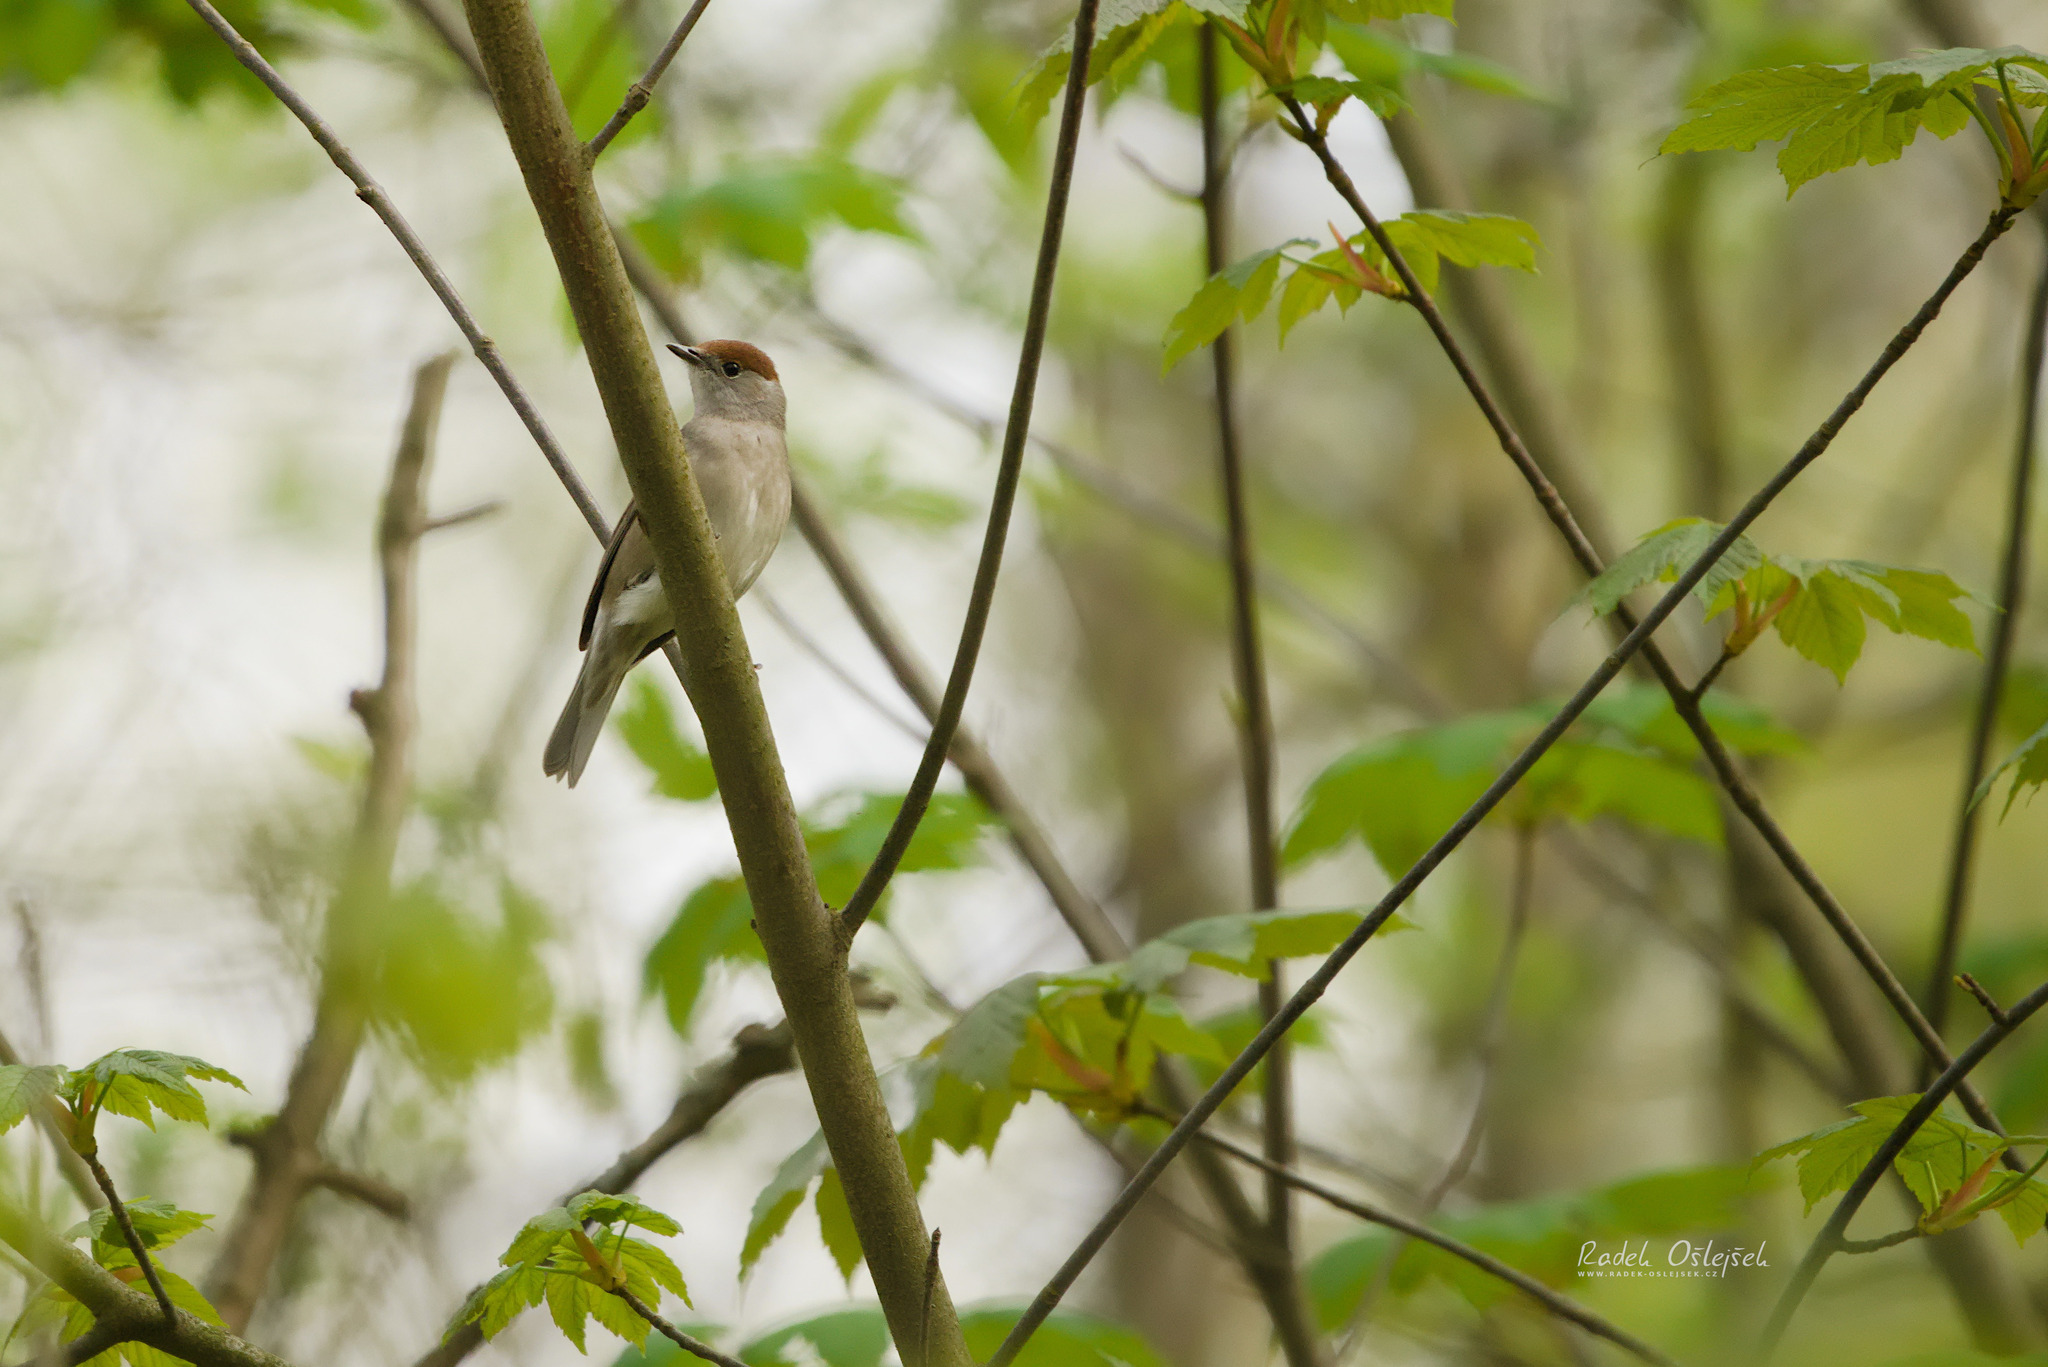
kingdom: Animalia
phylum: Chordata
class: Aves
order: Passeriformes
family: Sylviidae
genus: Sylvia
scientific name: Sylvia atricapilla
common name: Eurasian blackcap
